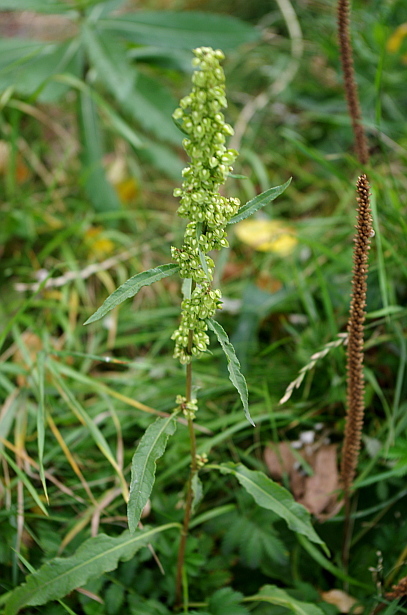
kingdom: Plantae
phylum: Tracheophyta
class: Magnoliopsida
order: Caryophyllales
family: Polygonaceae
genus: Rumex
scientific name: Rumex crispus
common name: Curled dock
